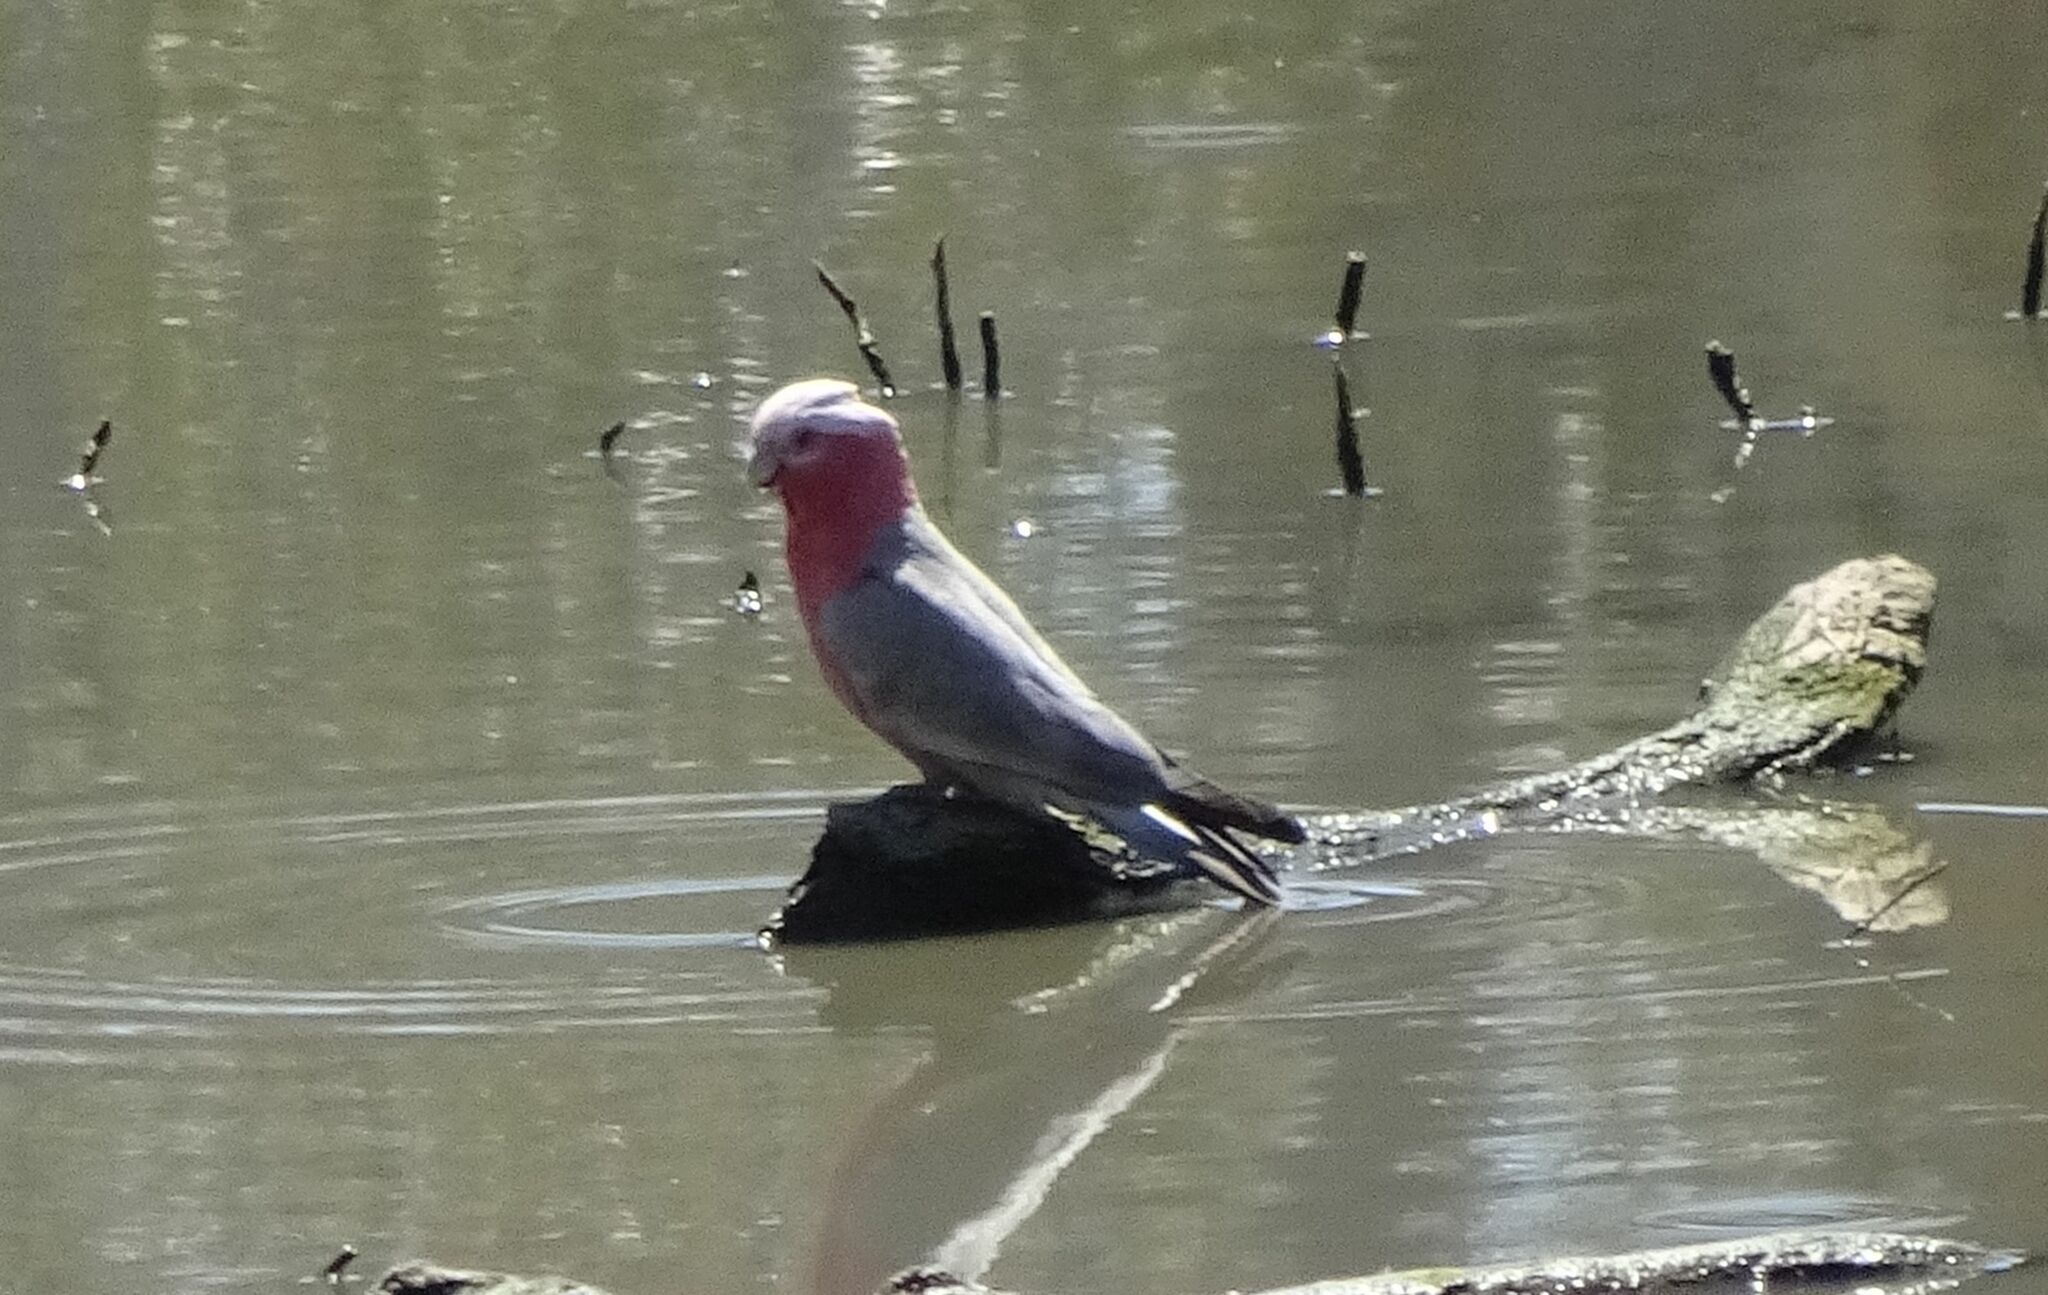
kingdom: Animalia
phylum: Chordata
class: Aves
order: Psittaciformes
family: Psittacidae
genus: Eolophus
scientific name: Eolophus roseicapilla
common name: Galah
